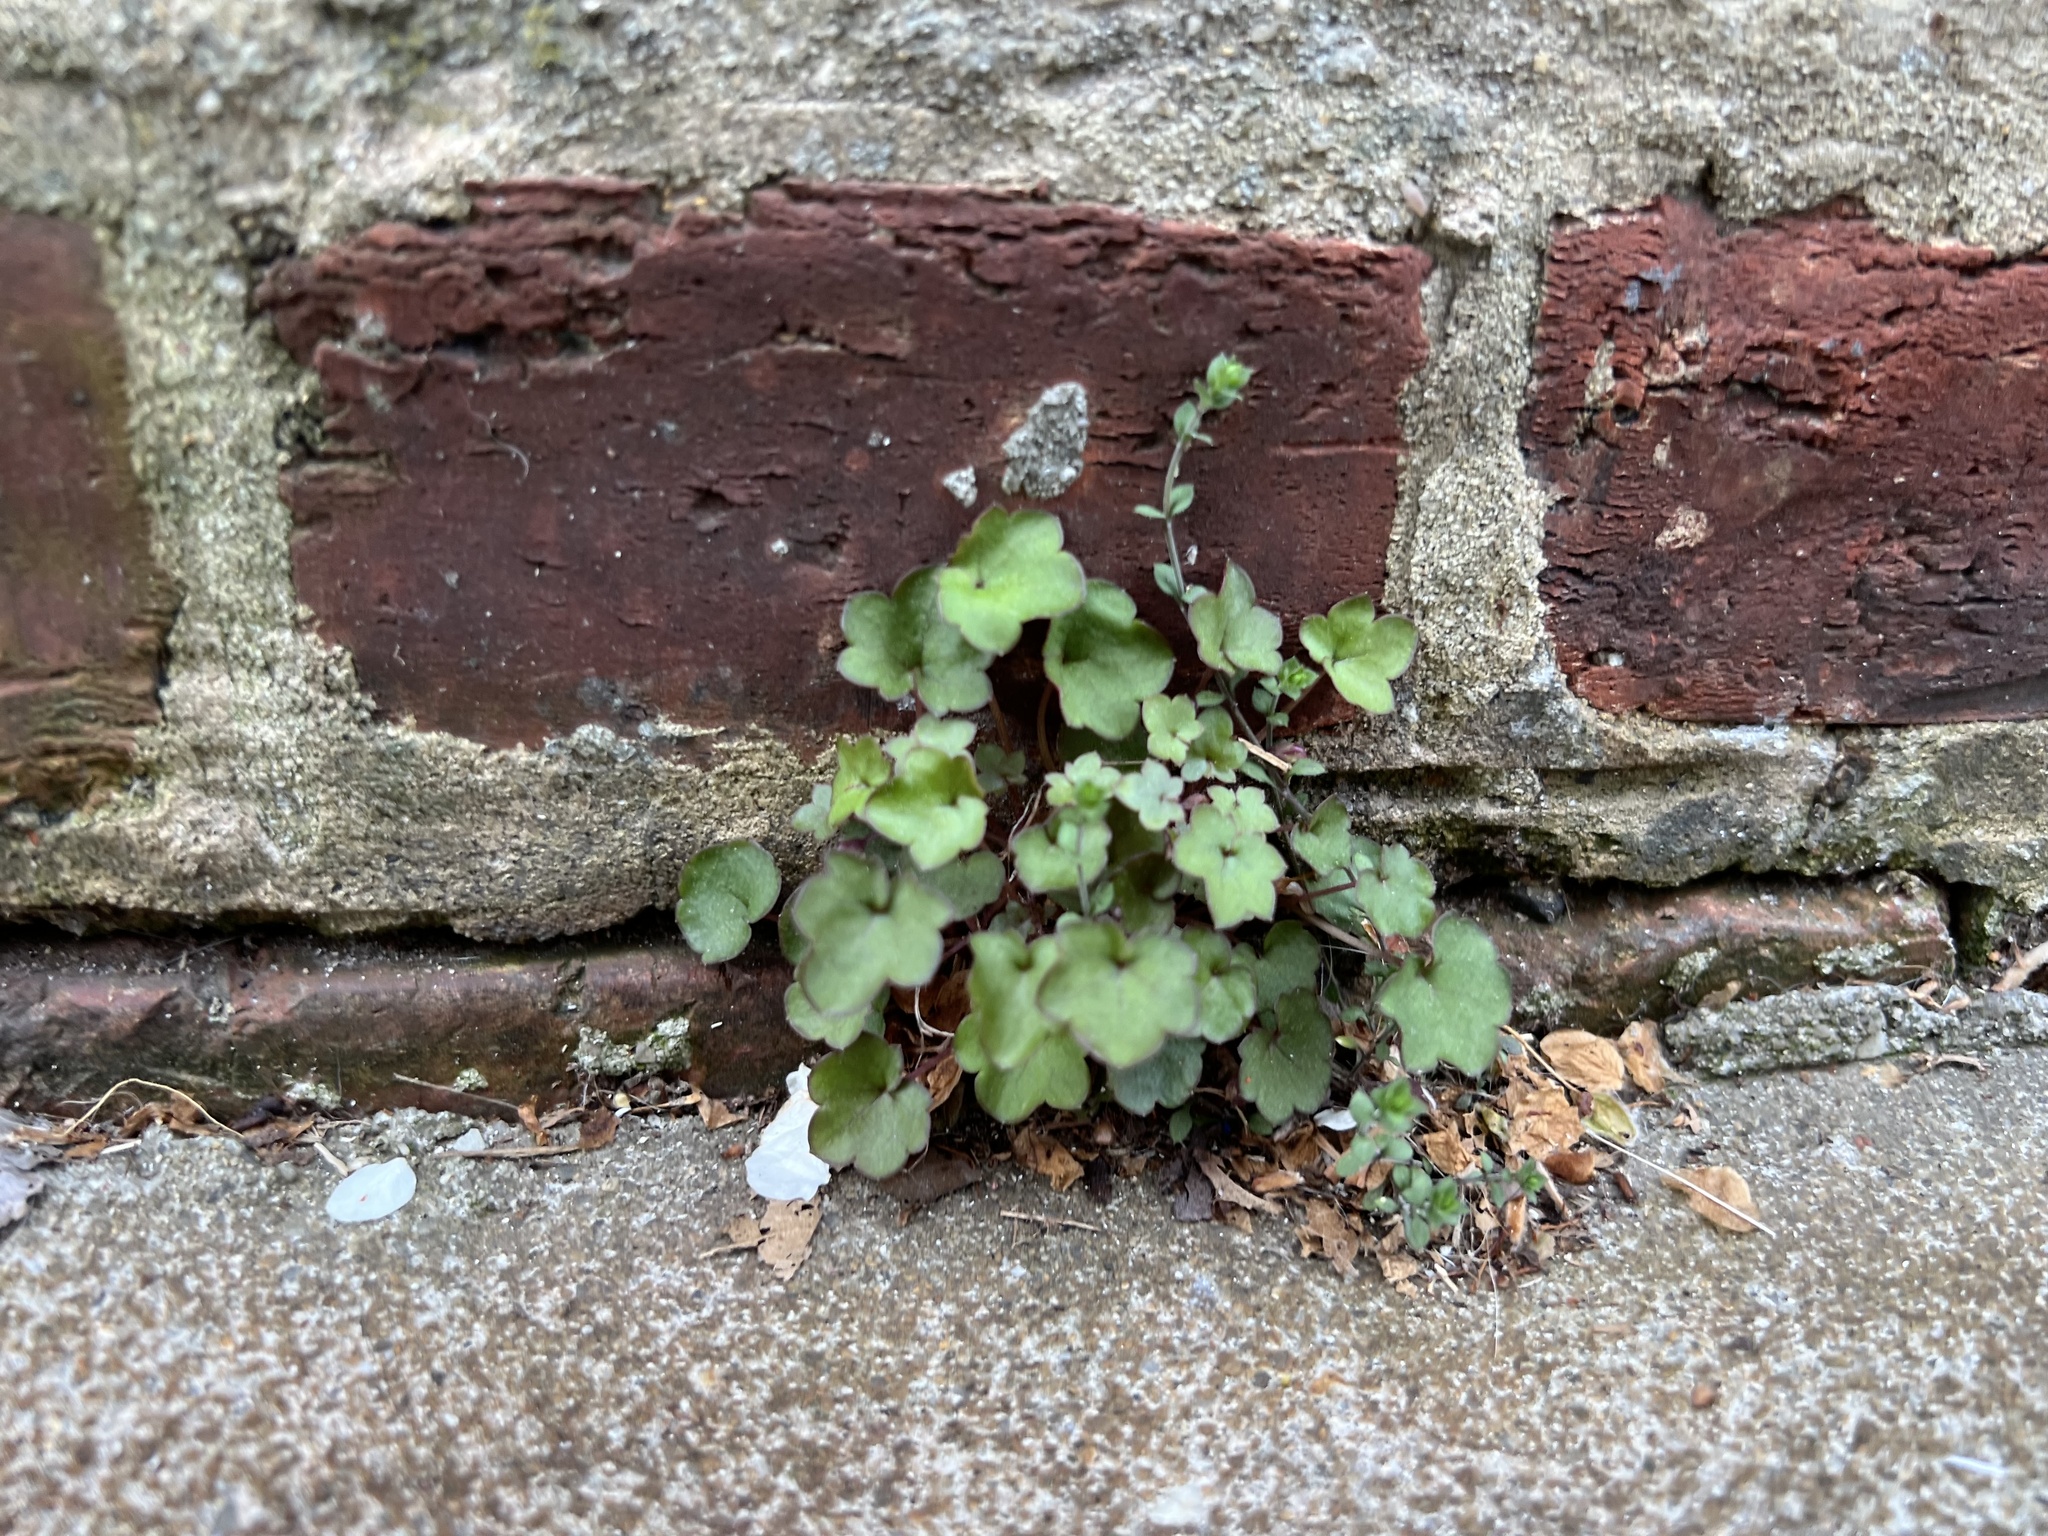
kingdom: Plantae
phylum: Tracheophyta
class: Magnoliopsida
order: Lamiales
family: Plantaginaceae
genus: Cymbalaria
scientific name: Cymbalaria muralis
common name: Ivy-leaved toadflax
